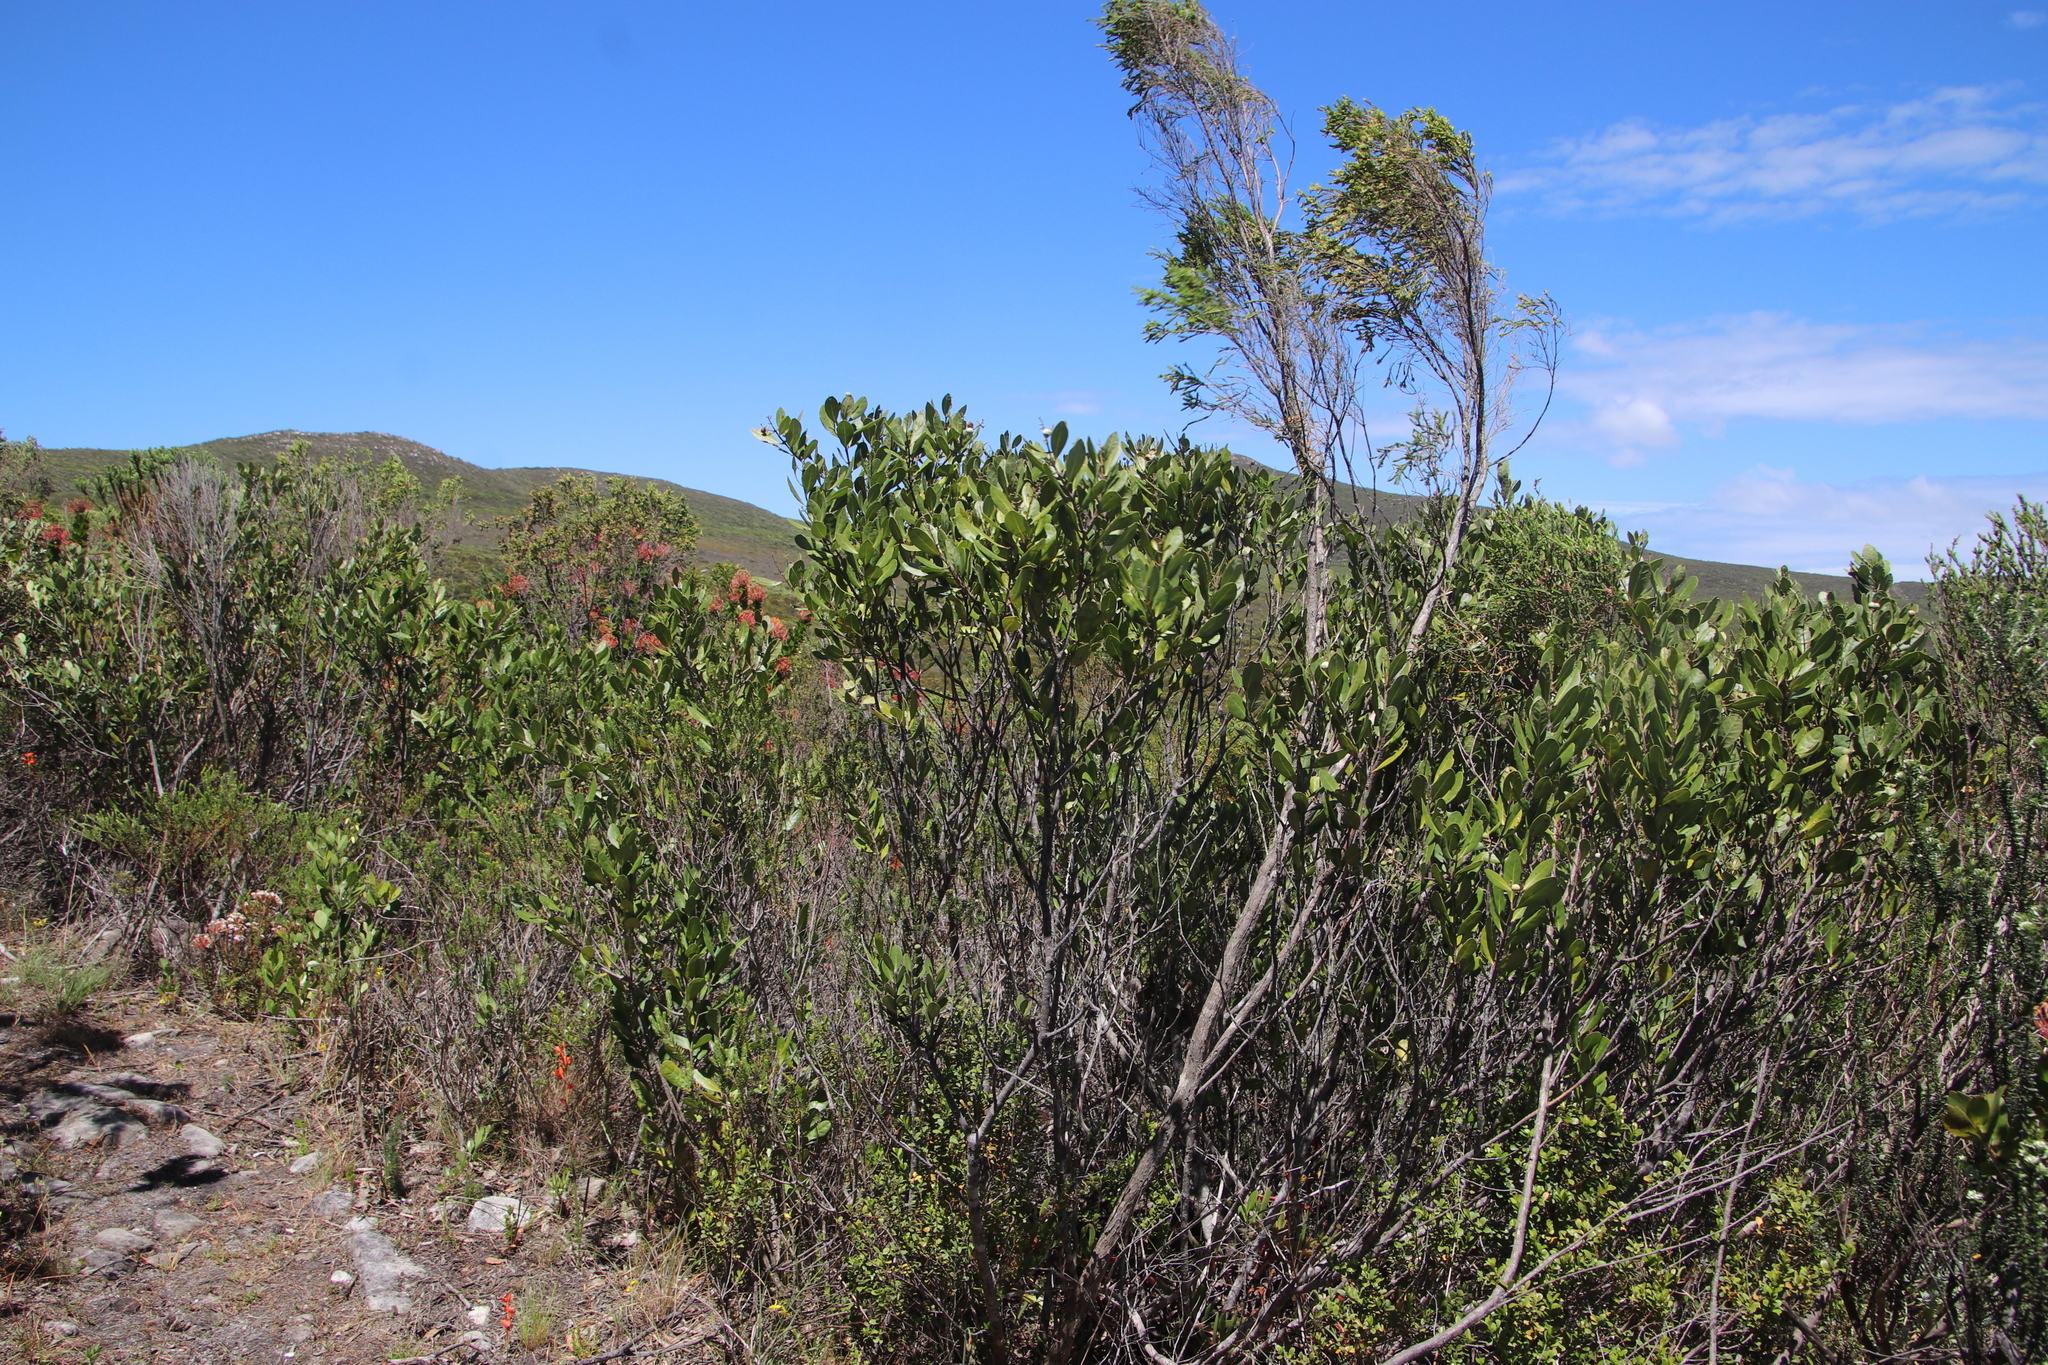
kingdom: Plantae
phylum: Tracheophyta
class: Magnoliopsida
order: Lamiales
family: Oleaceae
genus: Olea
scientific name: Olea capensis
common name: Black ironwood
